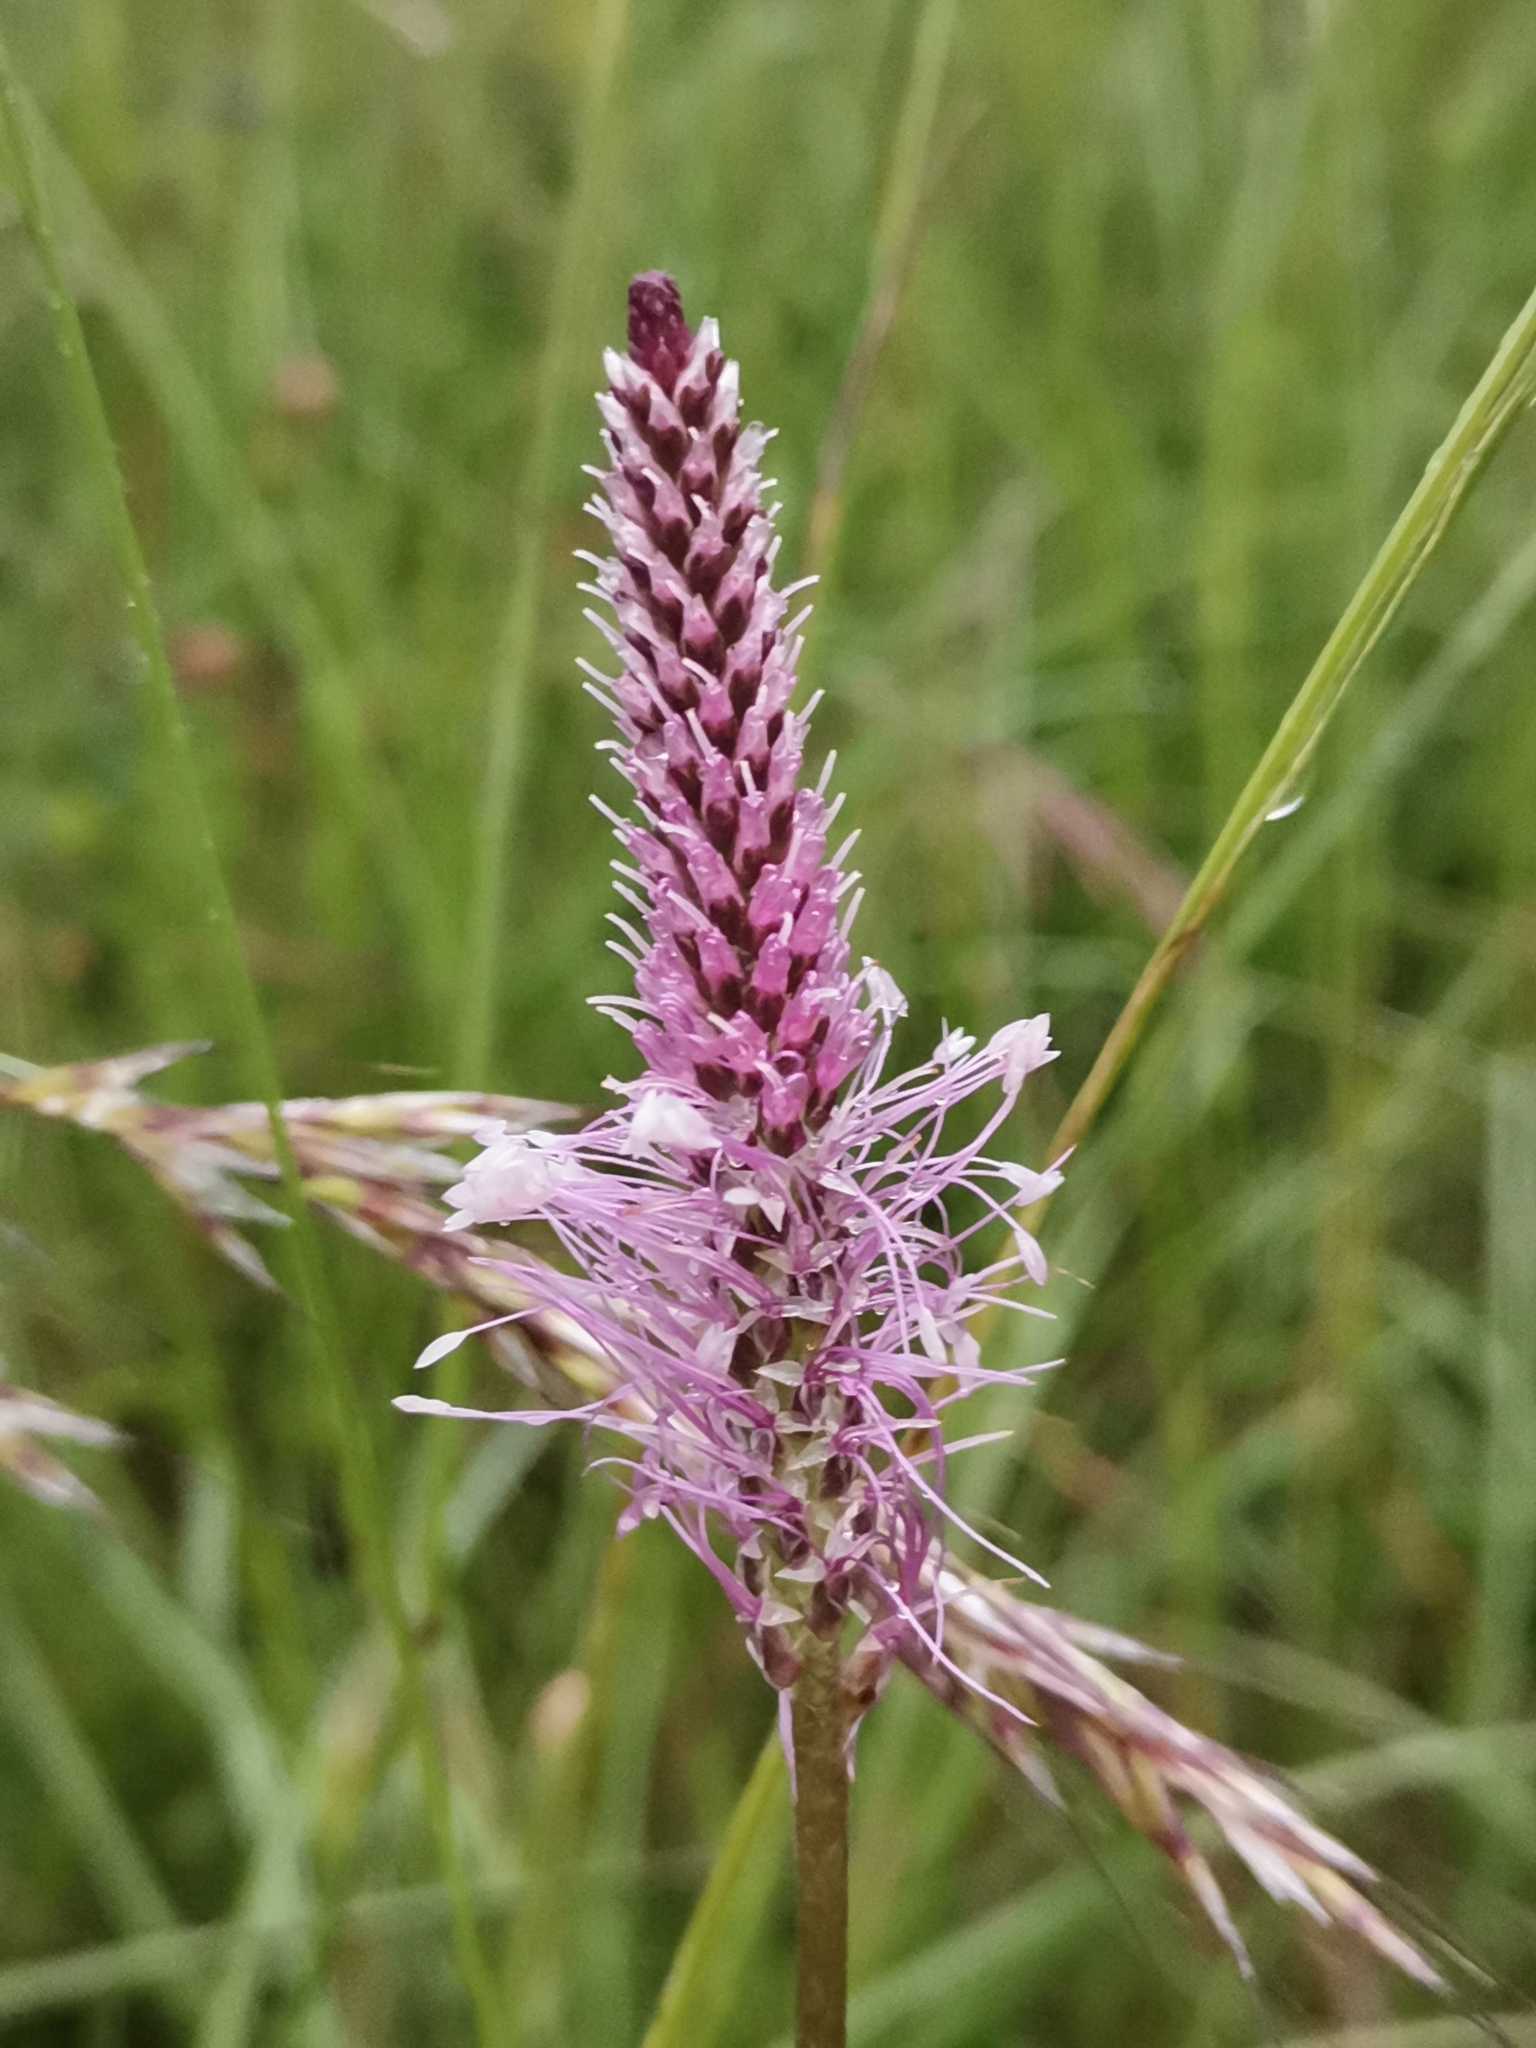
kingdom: Plantae
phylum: Tracheophyta
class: Magnoliopsida
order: Lamiales
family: Plantaginaceae
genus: Plantago
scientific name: Plantago media
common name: Hoary plantain
